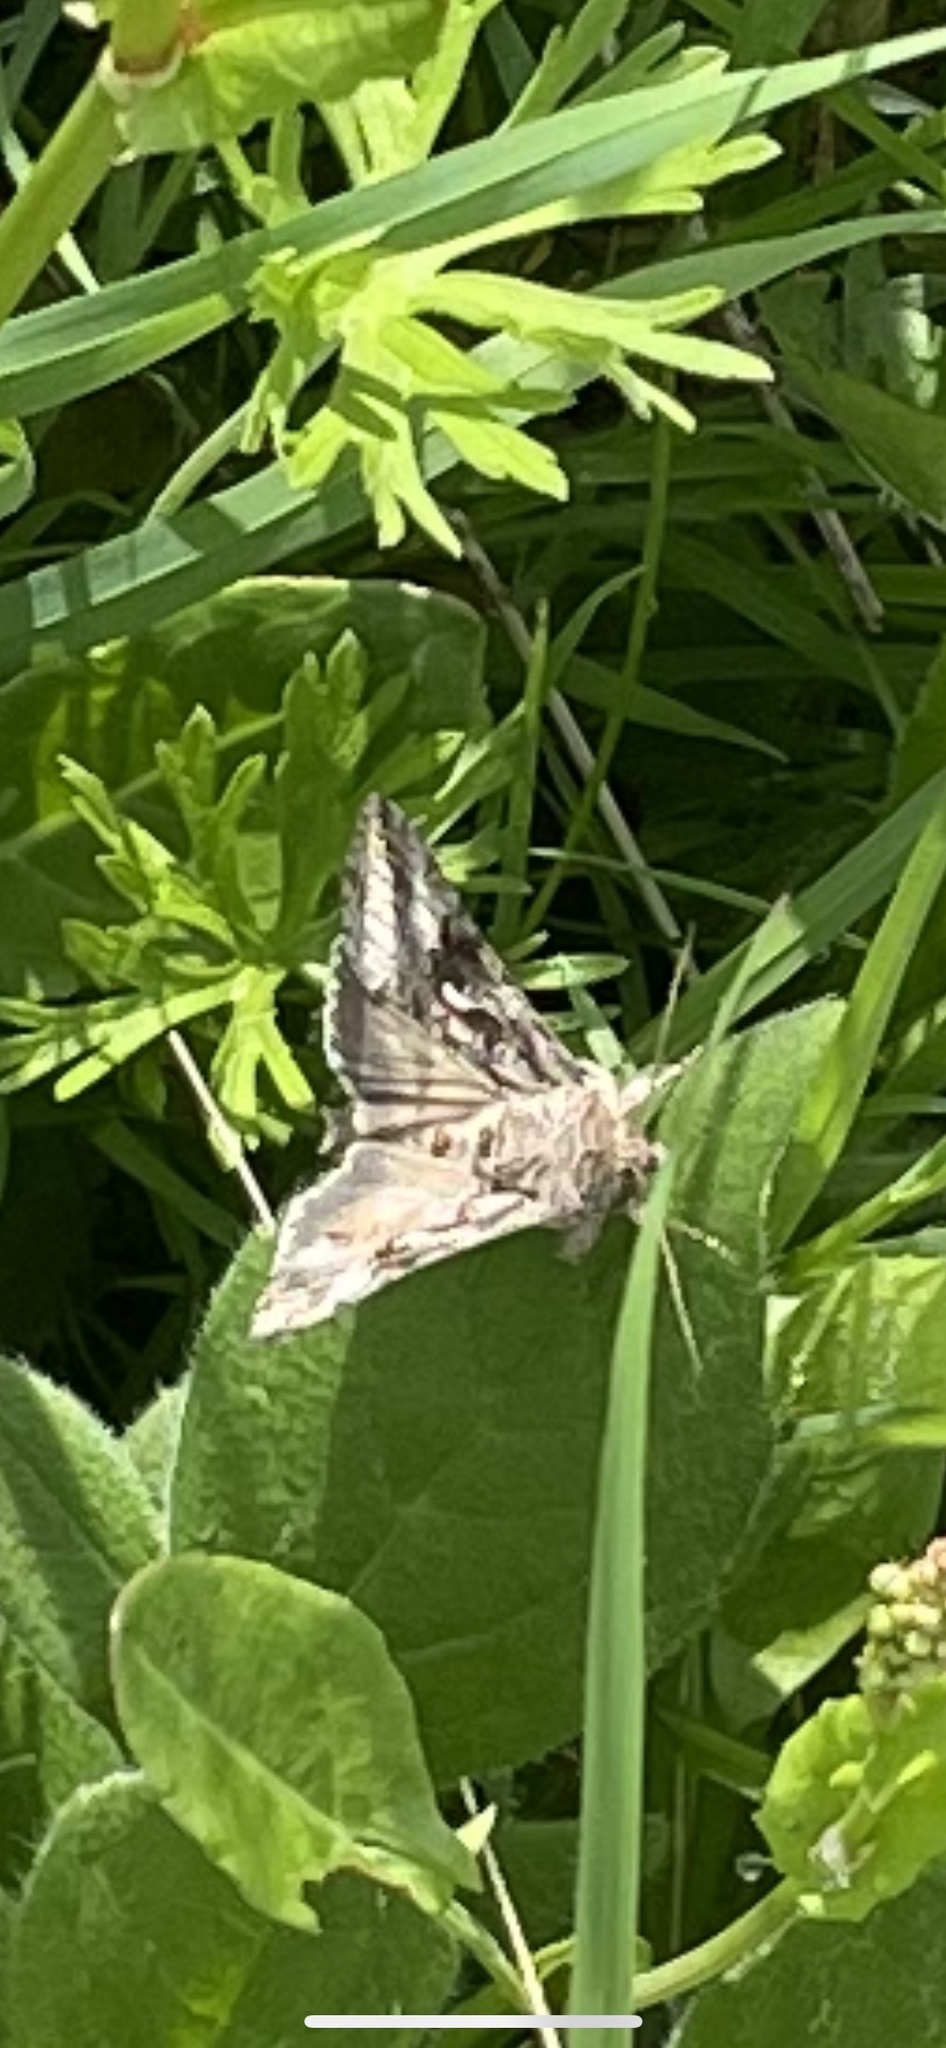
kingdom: Animalia
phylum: Arthropoda
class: Insecta
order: Lepidoptera
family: Noctuidae
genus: Autographa
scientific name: Autographa gamma
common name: Silver y
